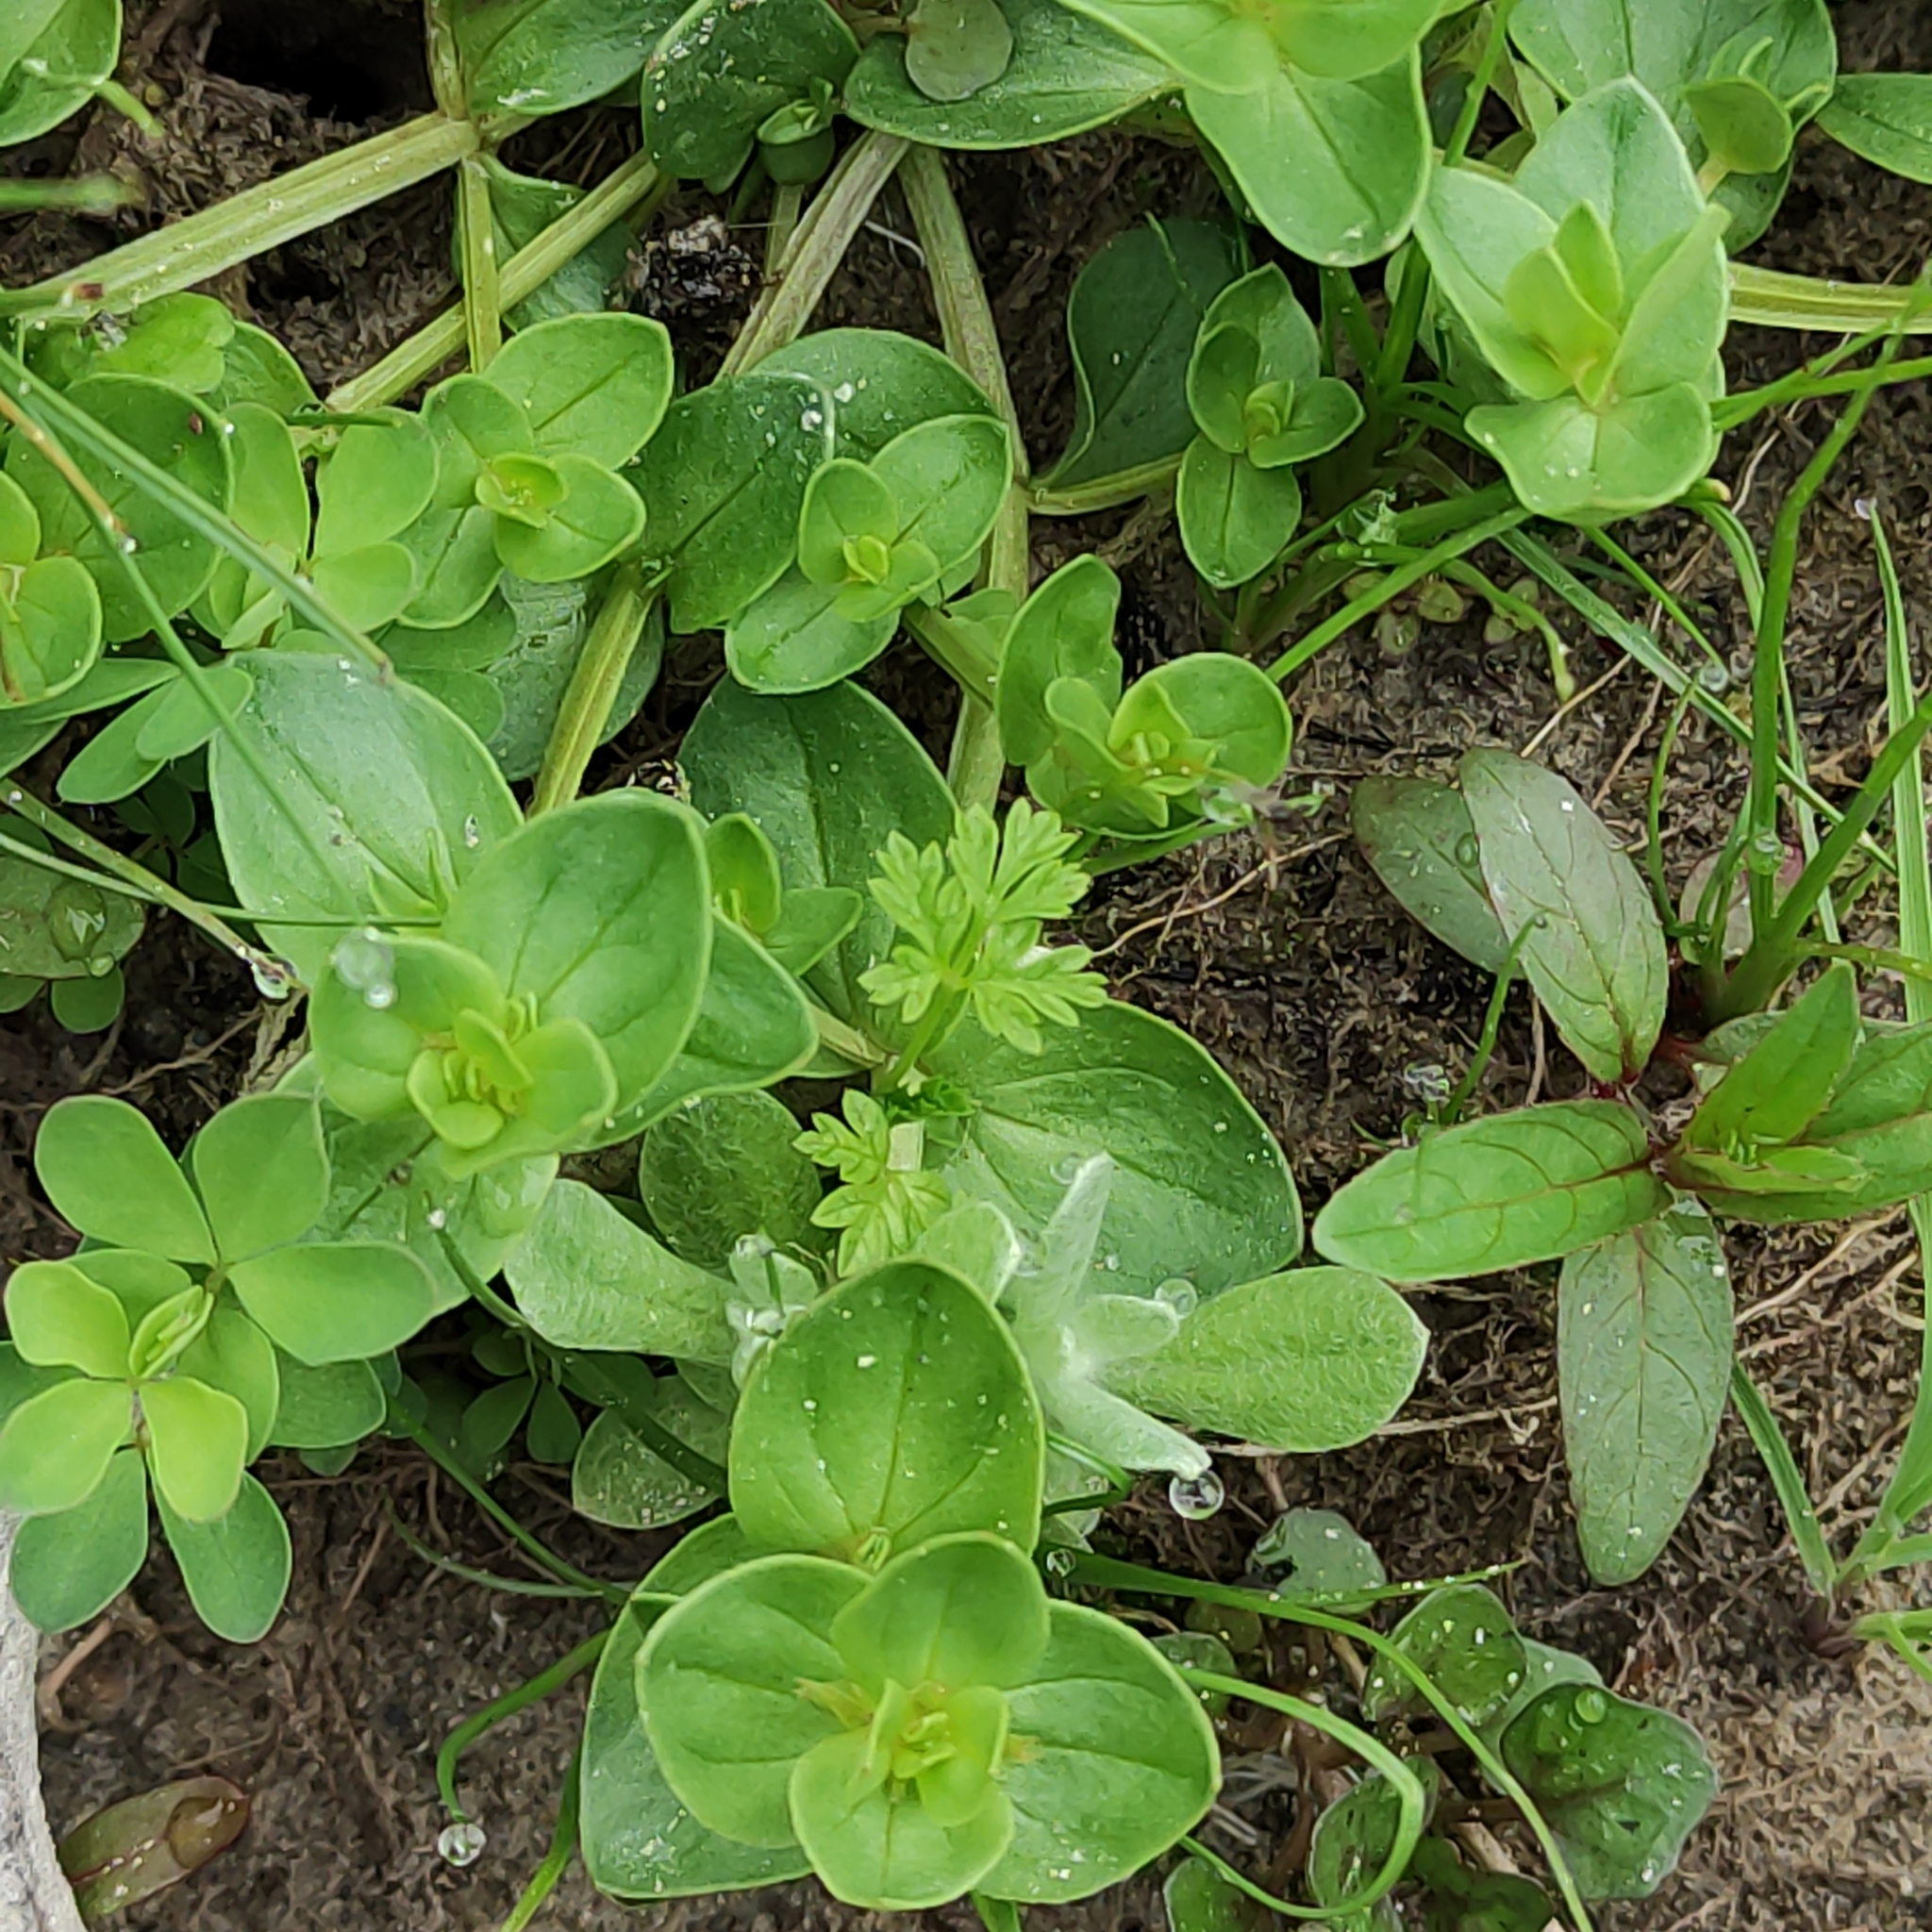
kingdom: Plantae
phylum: Tracheophyta
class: Magnoliopsida
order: Ericales
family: Primulaceae
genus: Lysimachia
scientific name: Lysimachia arvensis
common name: Scarlet pimpernel
